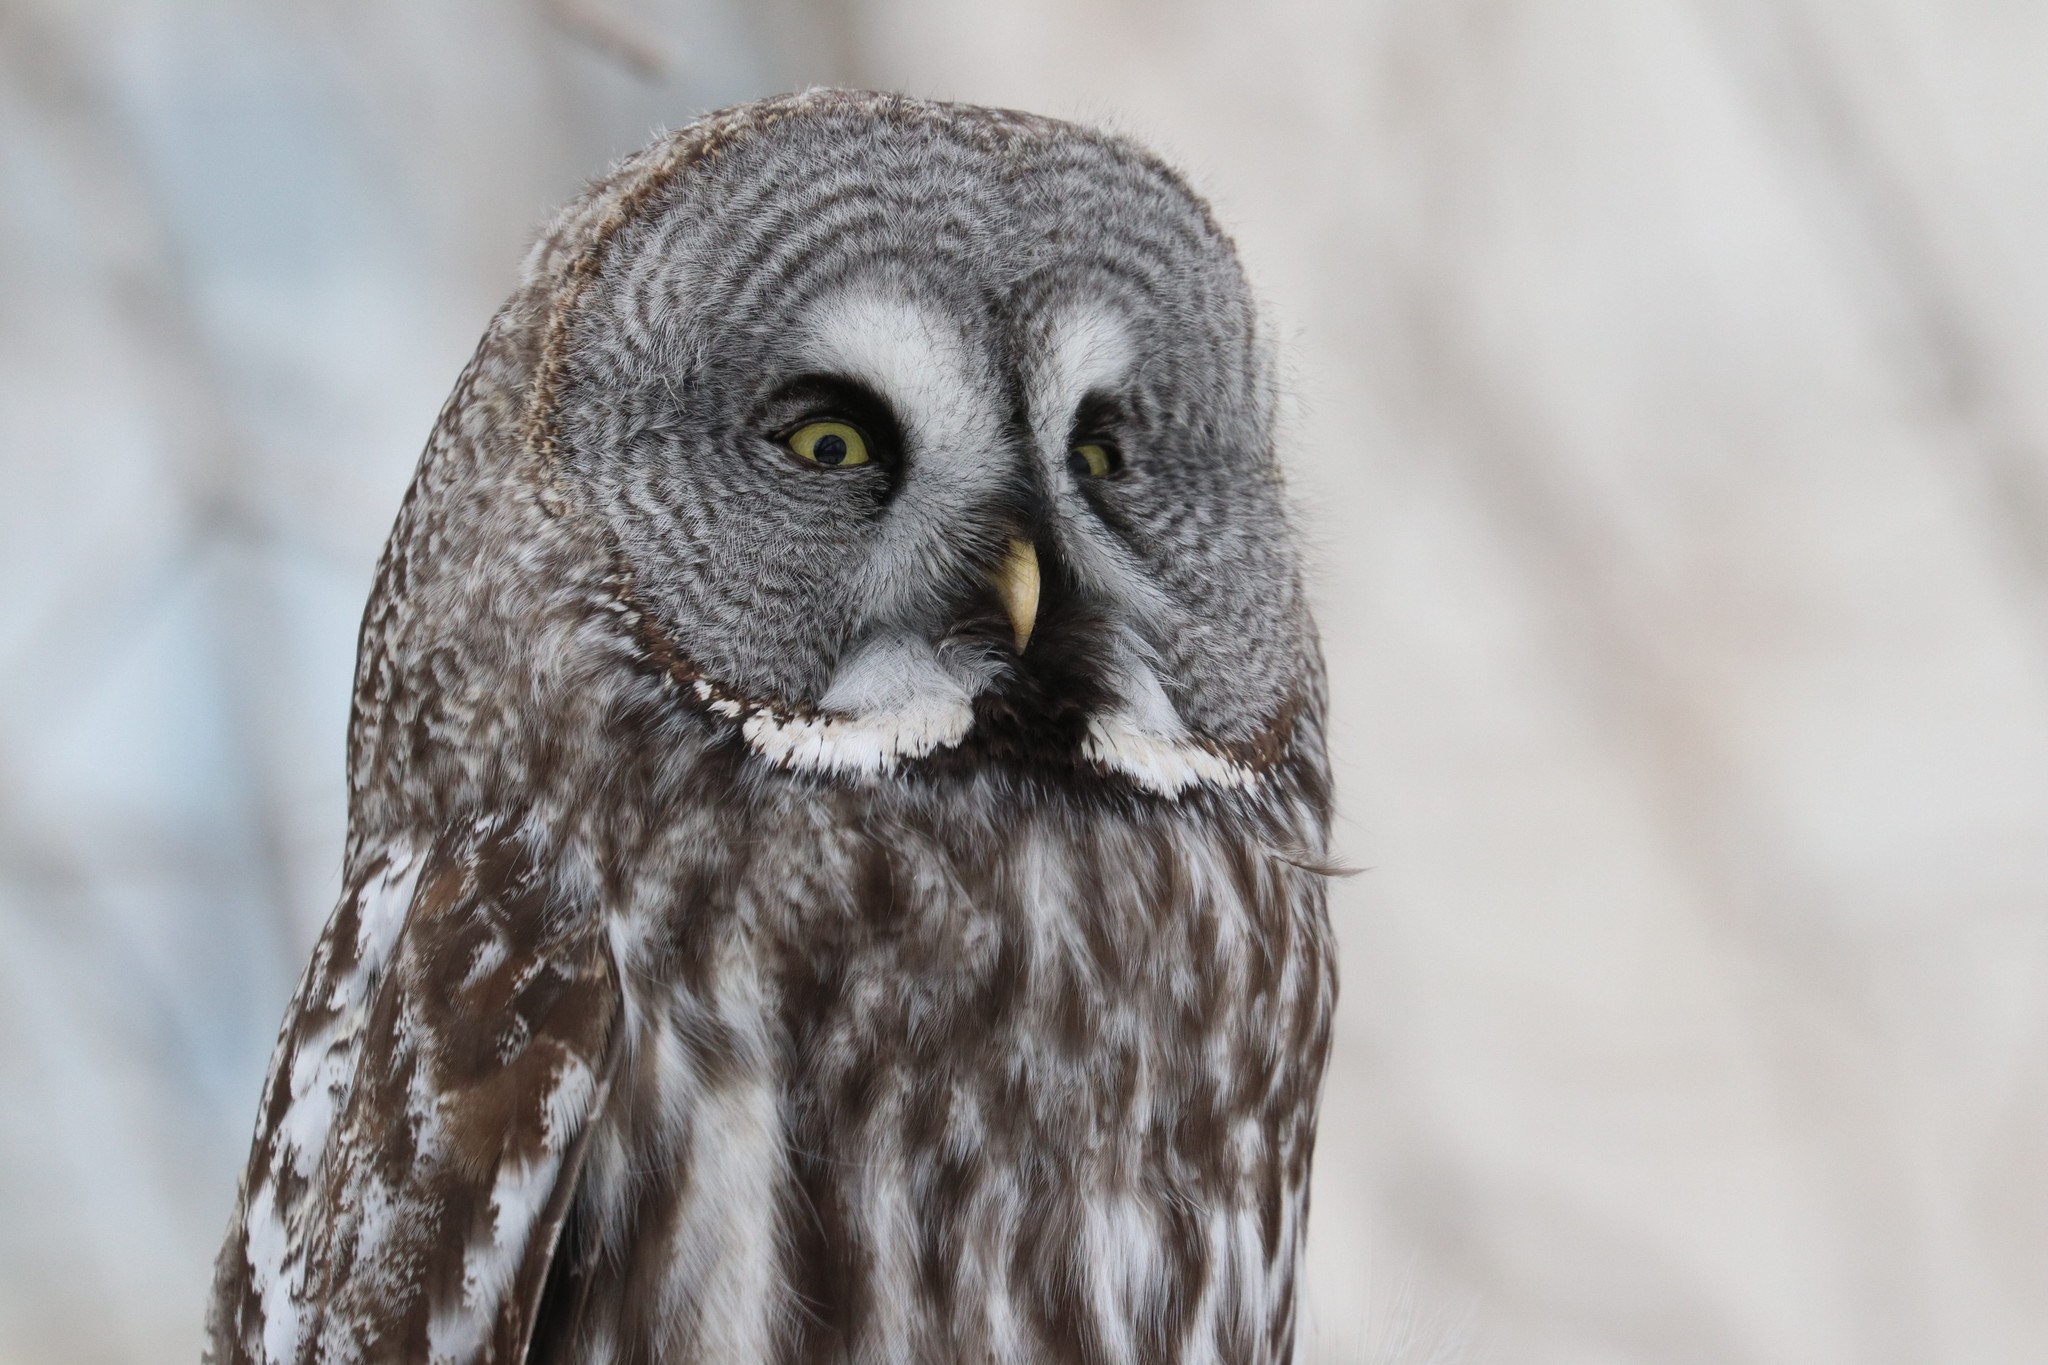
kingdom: Animalia
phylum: Chordata
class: Aves
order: Strigiformes
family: Strigidae
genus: Strix
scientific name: Strix nebulosa
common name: Great grey owl
